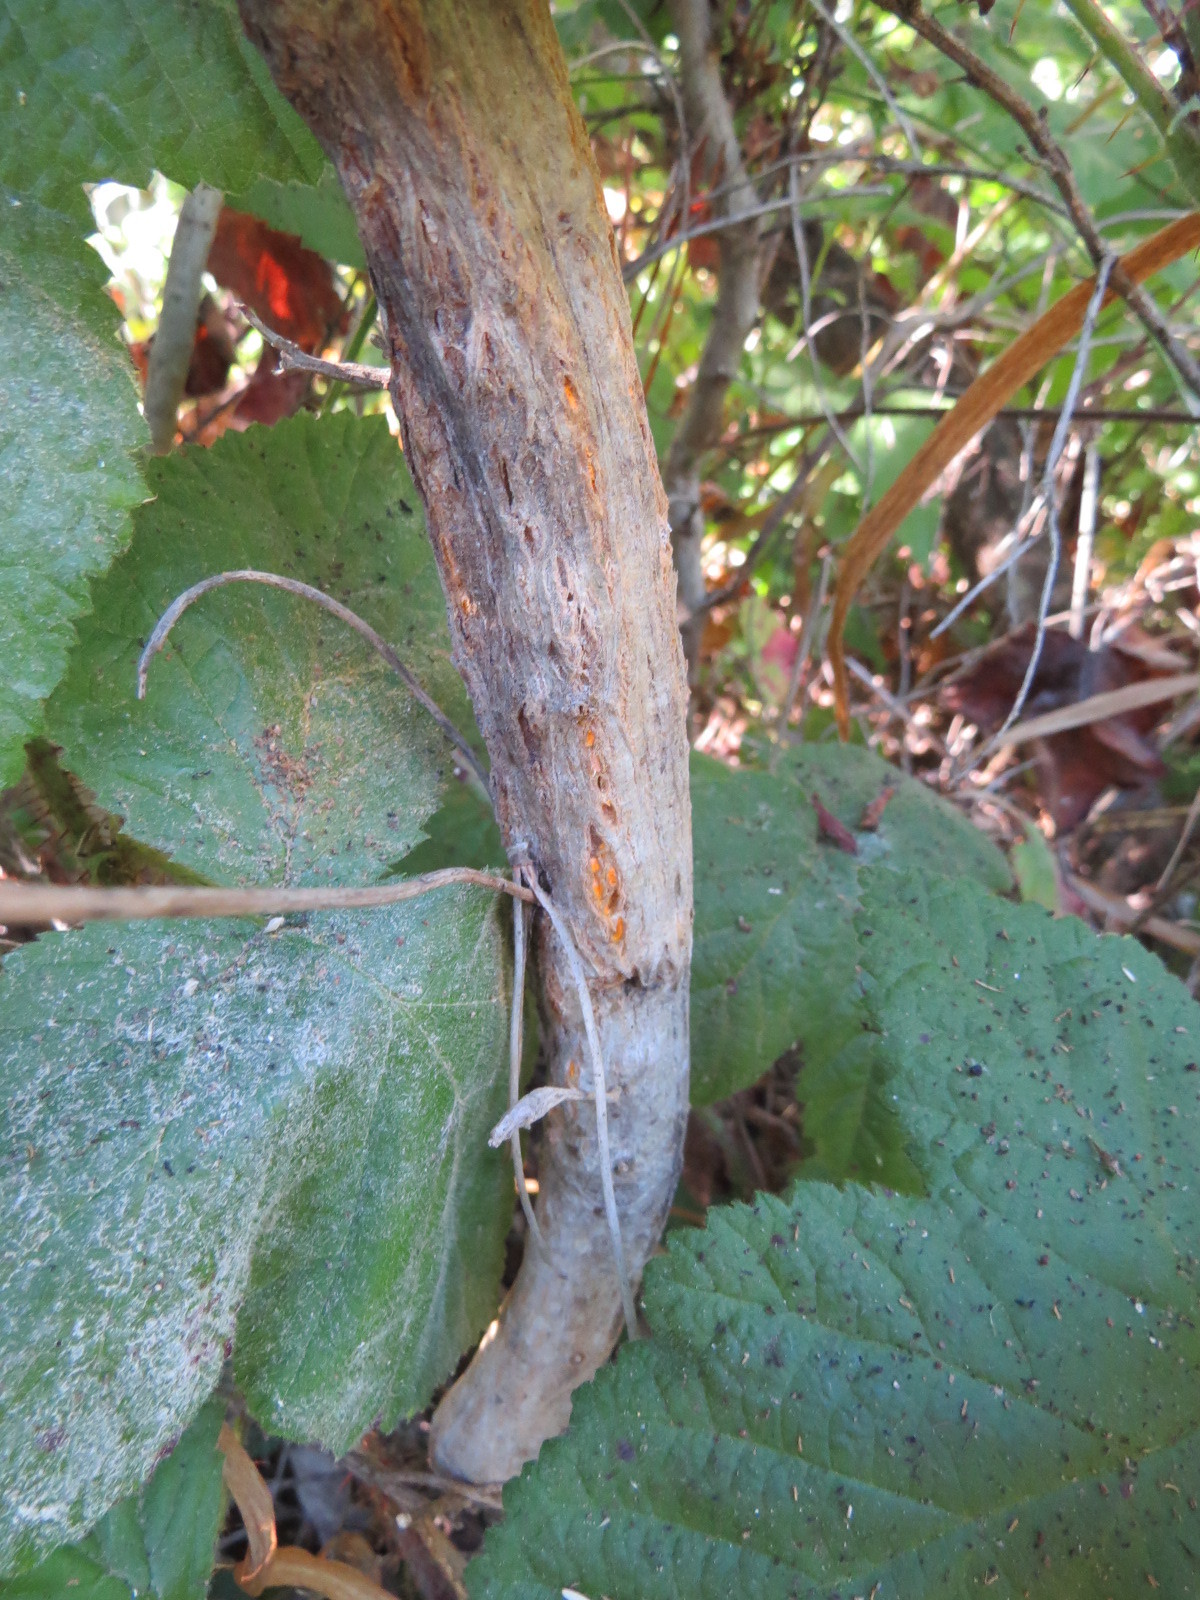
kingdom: Fungi
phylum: Basidiomycota
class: Pucciniomycetes
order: Pucciniales
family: Pucciniaceae
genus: Eriosporangium
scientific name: Eriosporangium evadens
